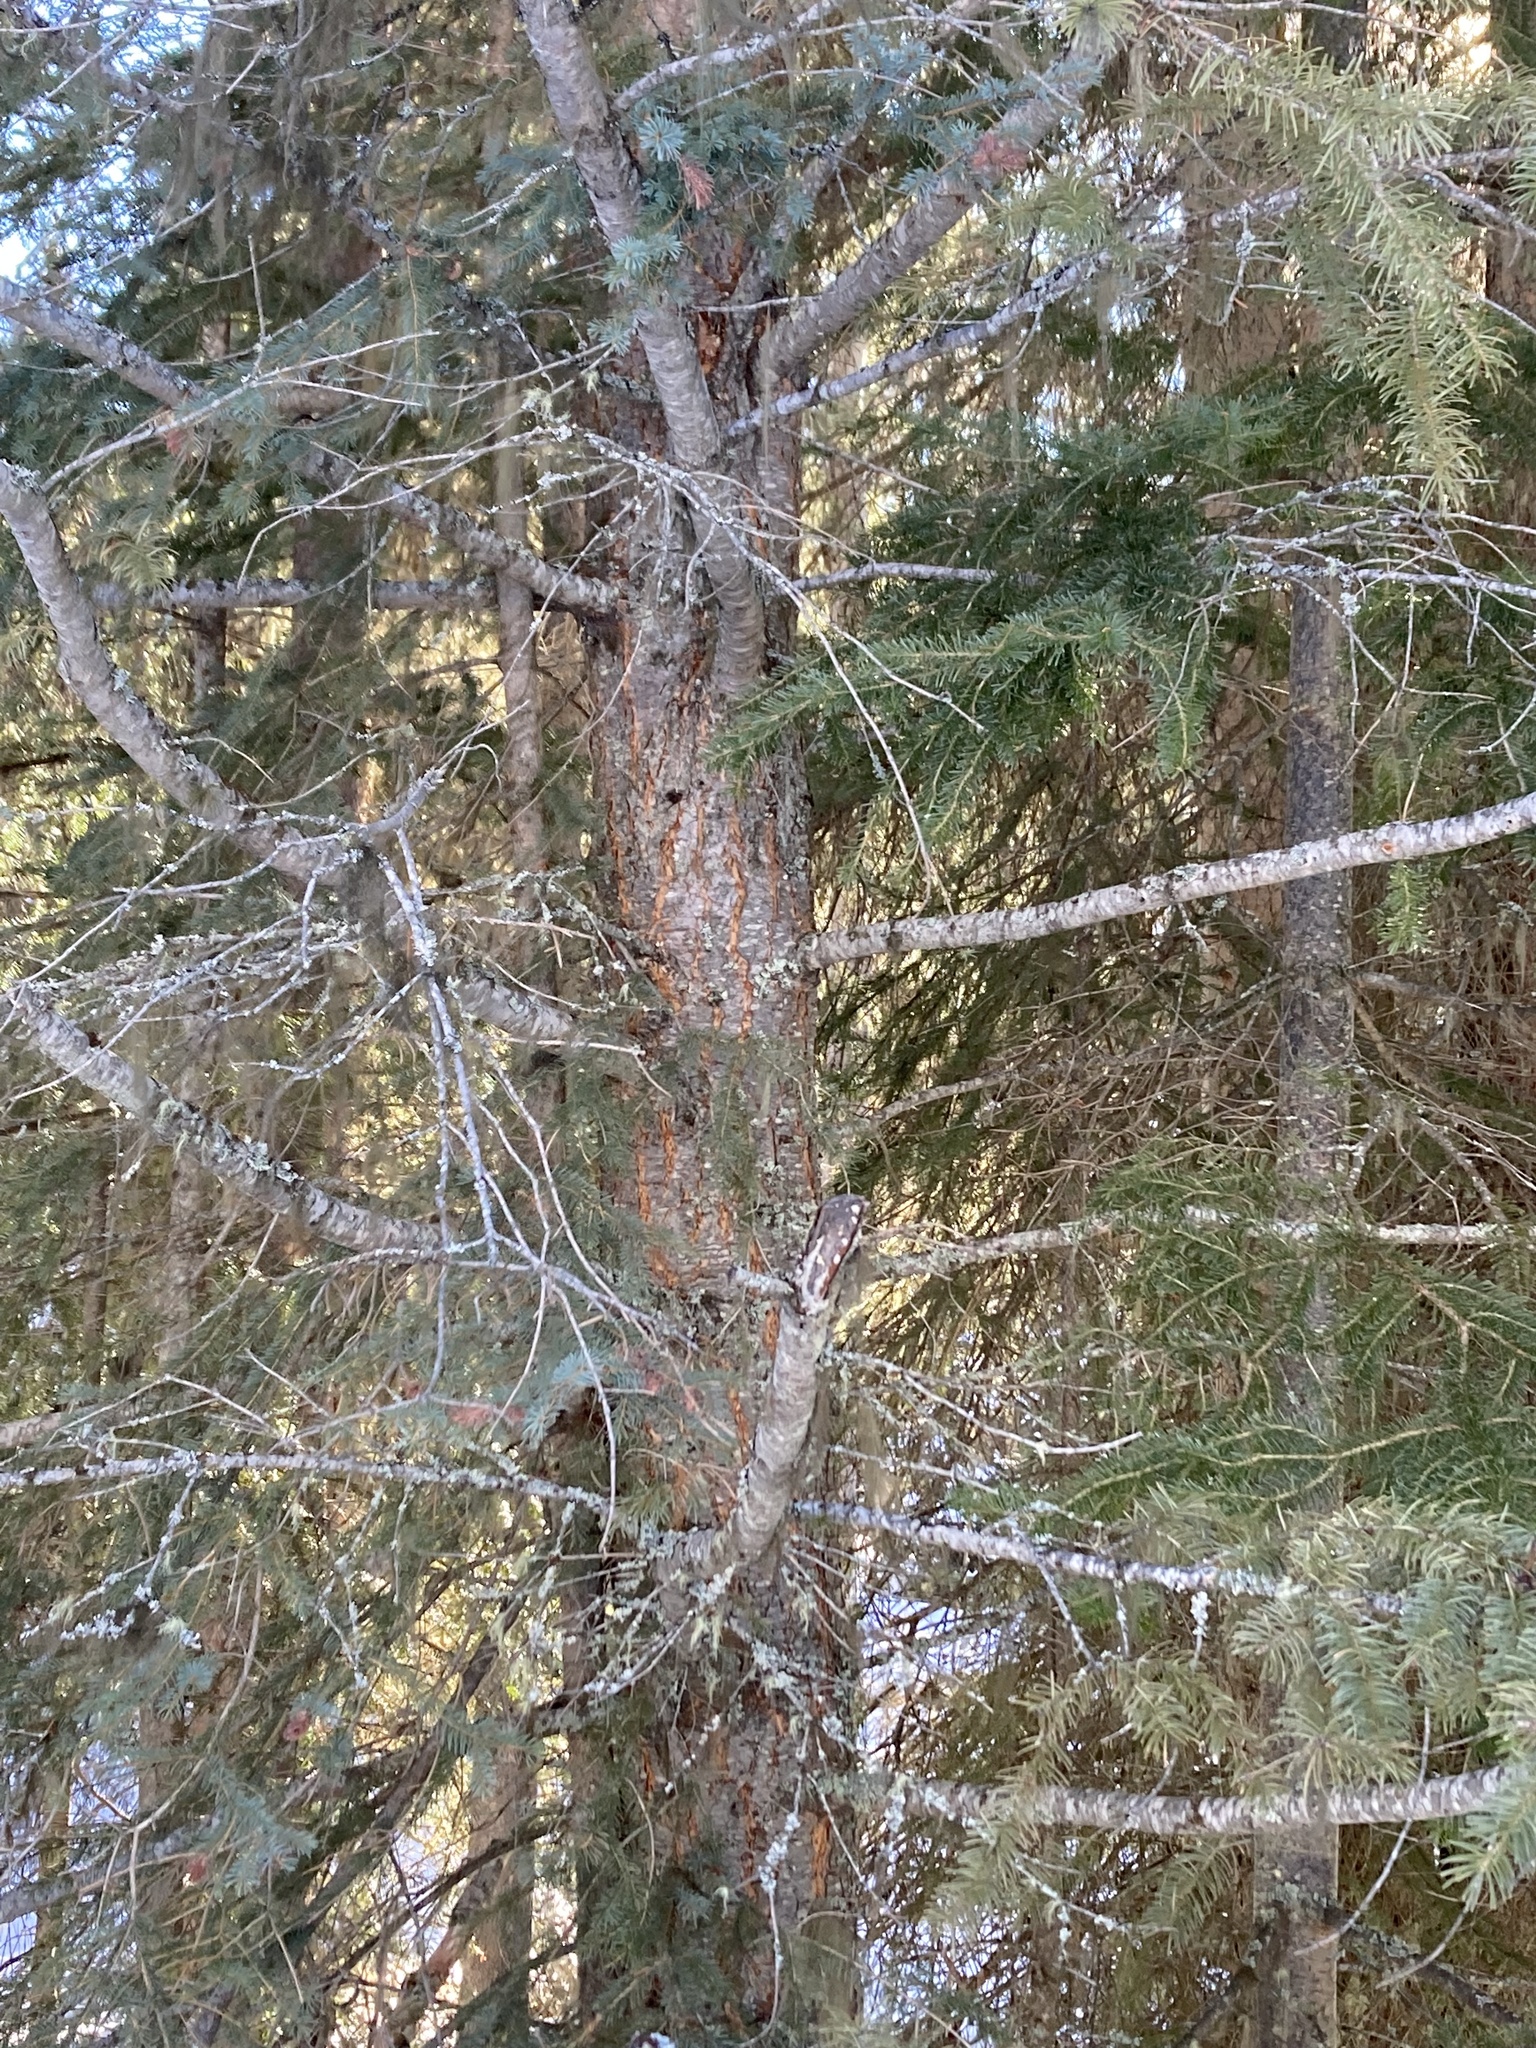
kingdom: Plantae
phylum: Tracheophyta
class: Pinopsida
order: Pinales
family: Pinaceae
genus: Pseudotsuga
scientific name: Pseudotsuga menziesii
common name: Douglas fir
